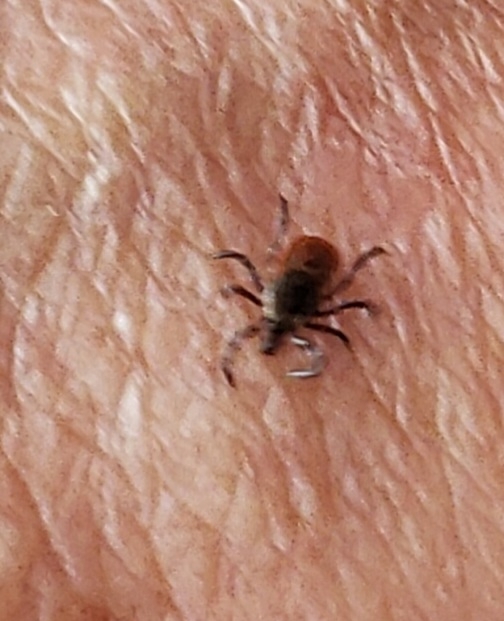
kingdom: Animalia
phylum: Arthropoda
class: Arachnida
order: Ixodida
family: Ixodidae
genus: Ixodes
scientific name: Ixodes scapularis
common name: Black legged tick
